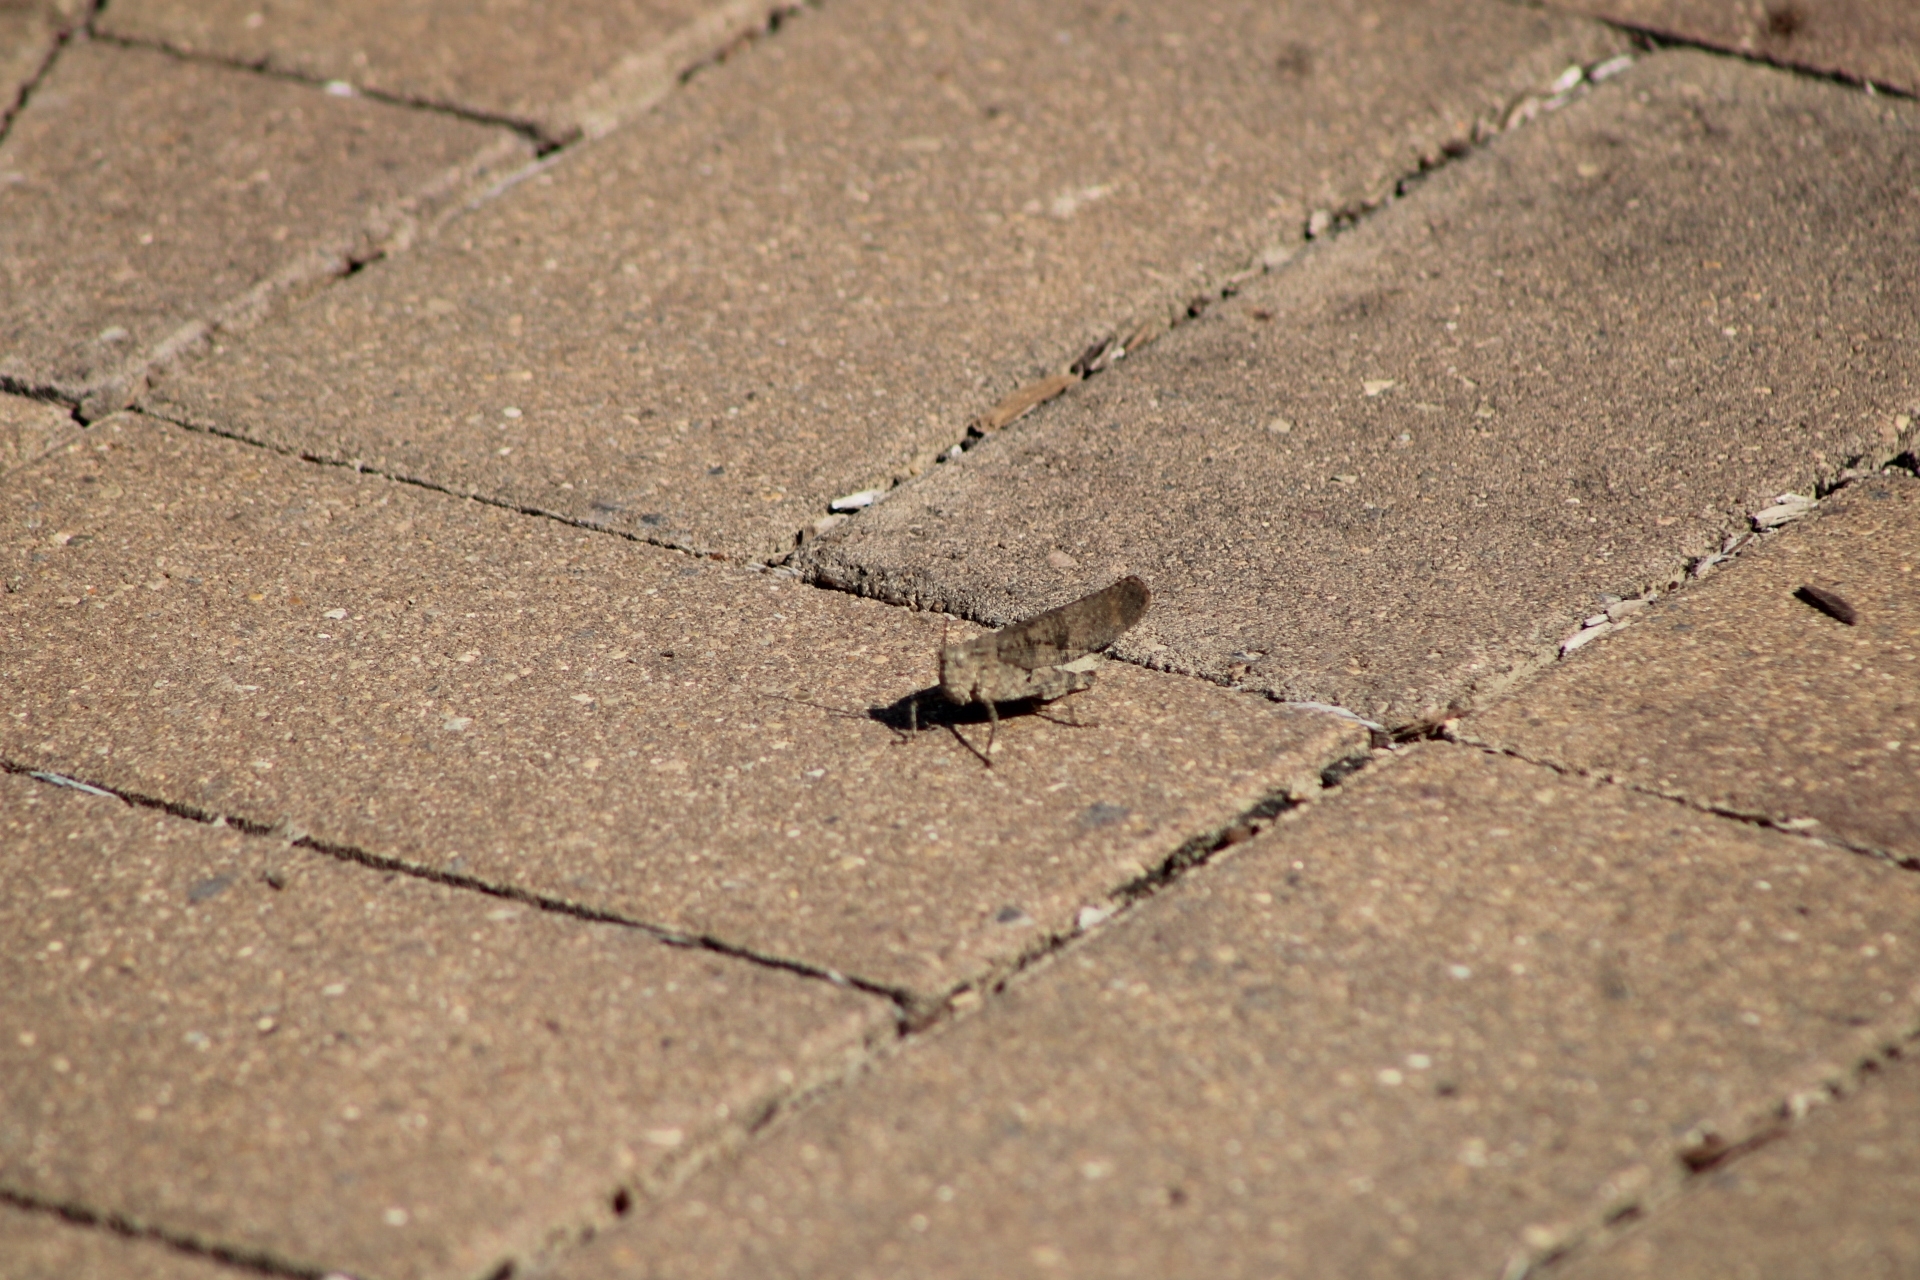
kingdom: Animalia
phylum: Arthropoda
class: Insecta
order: Orthoptera
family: Acrididae
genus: Dissosteira
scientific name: Dissosteira carolina
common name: Carolina grasshopper
